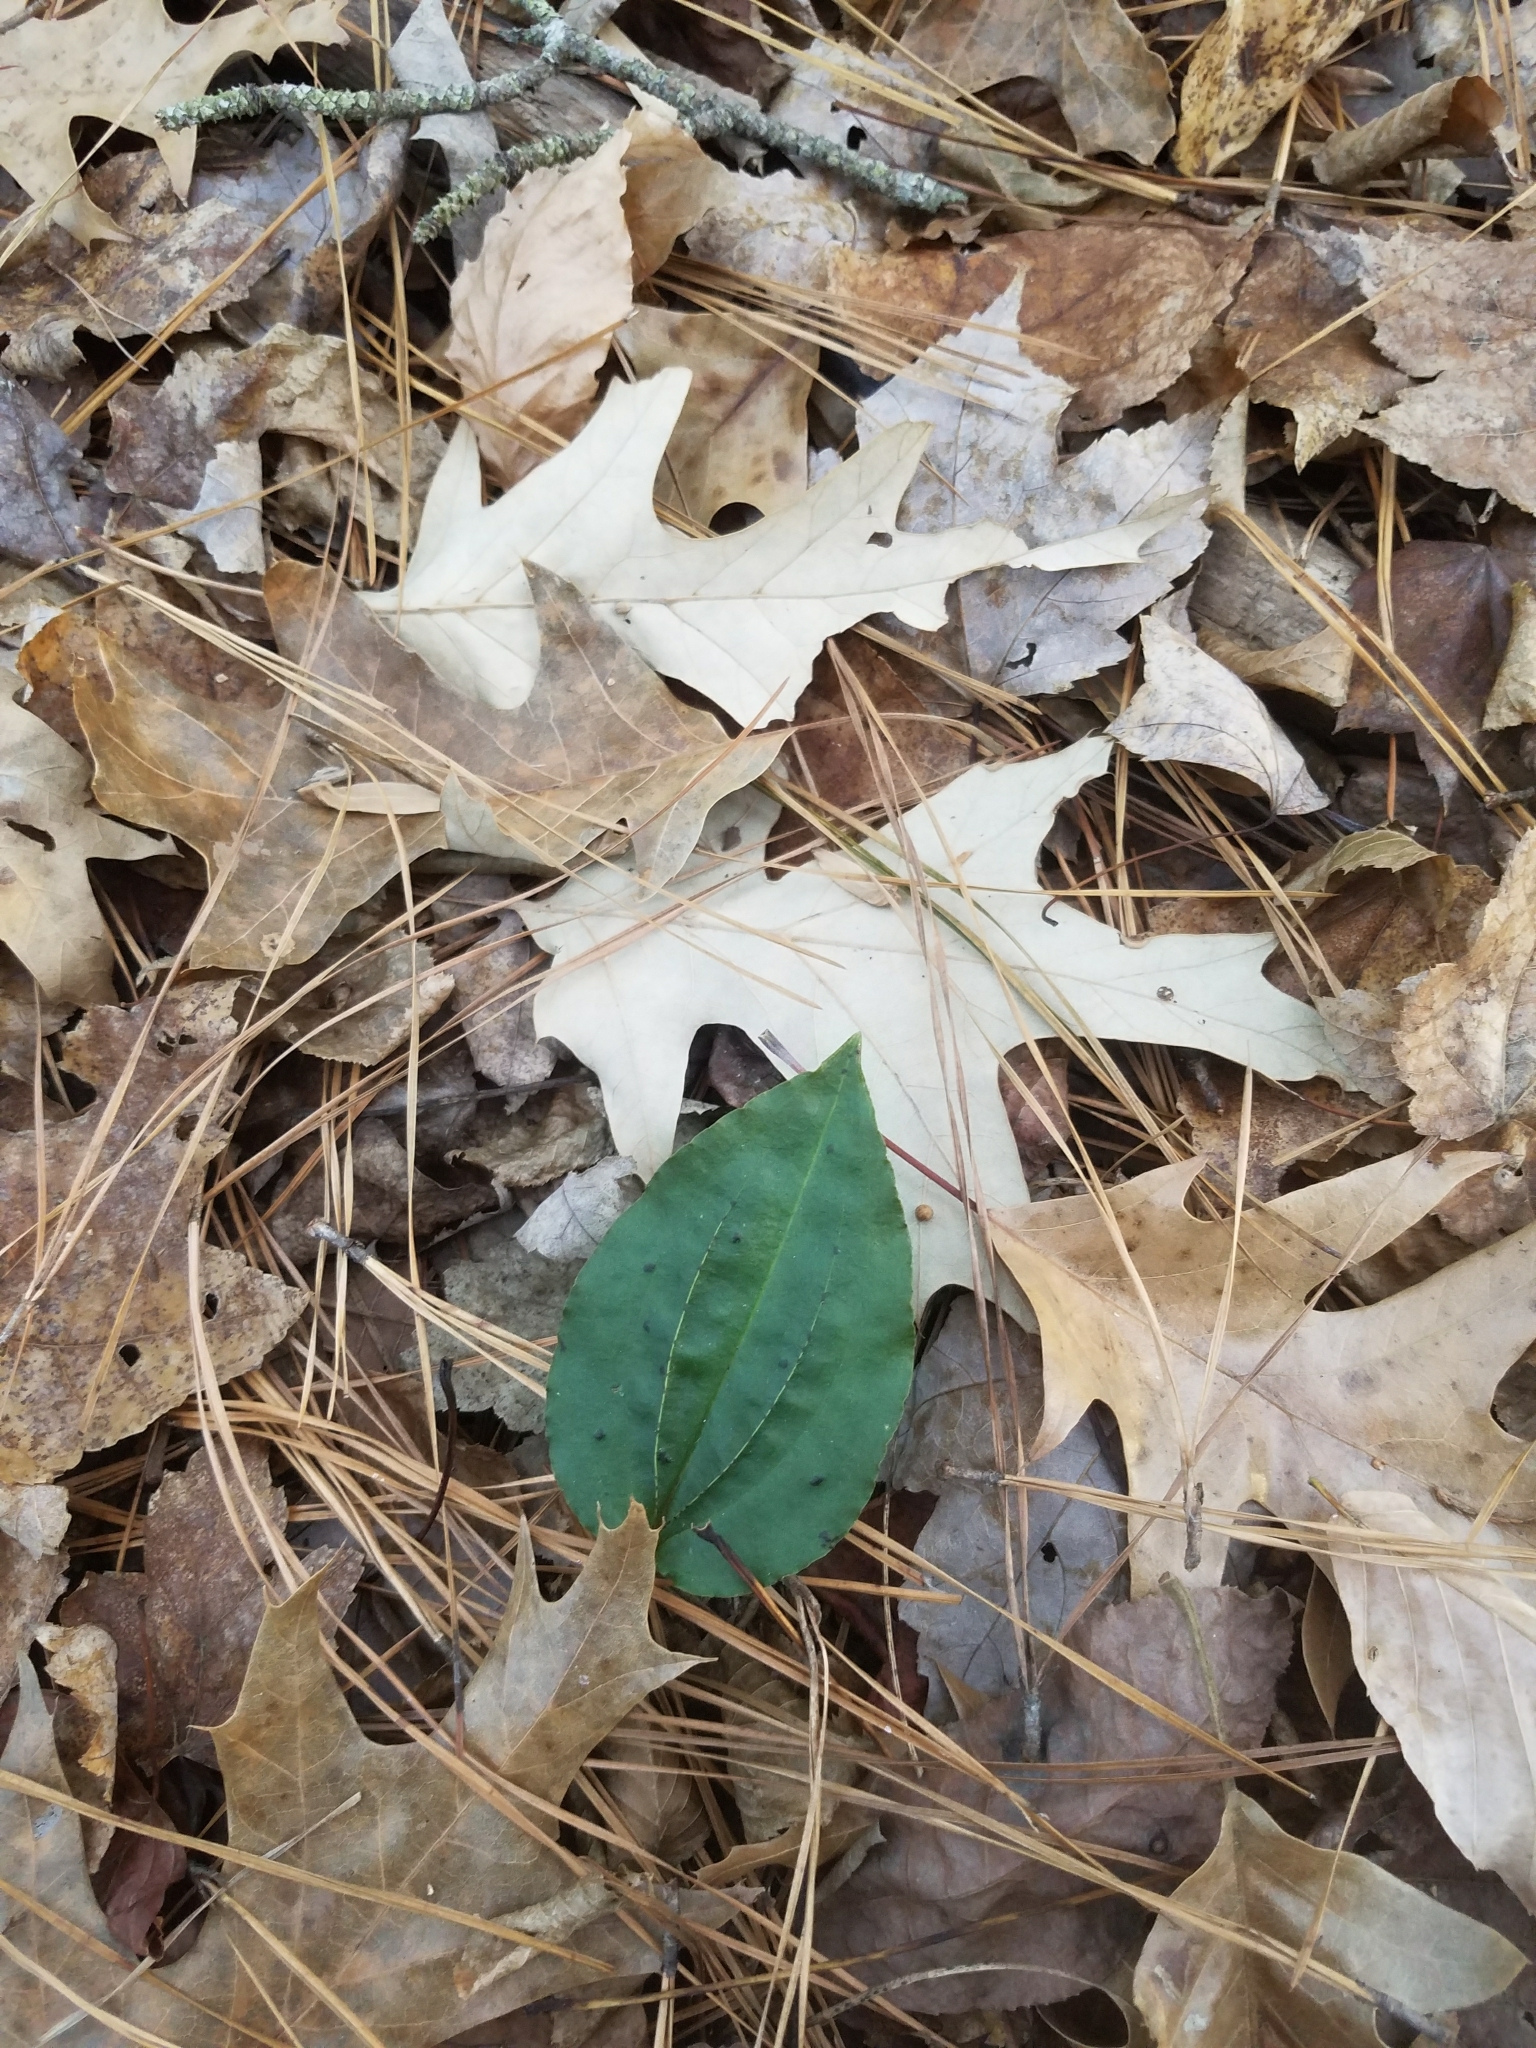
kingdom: Plantae
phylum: Tracheophyta
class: Liliopsida
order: Asparagales
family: Orchidaceae
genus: Tipularia
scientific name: Tipularia discolor
